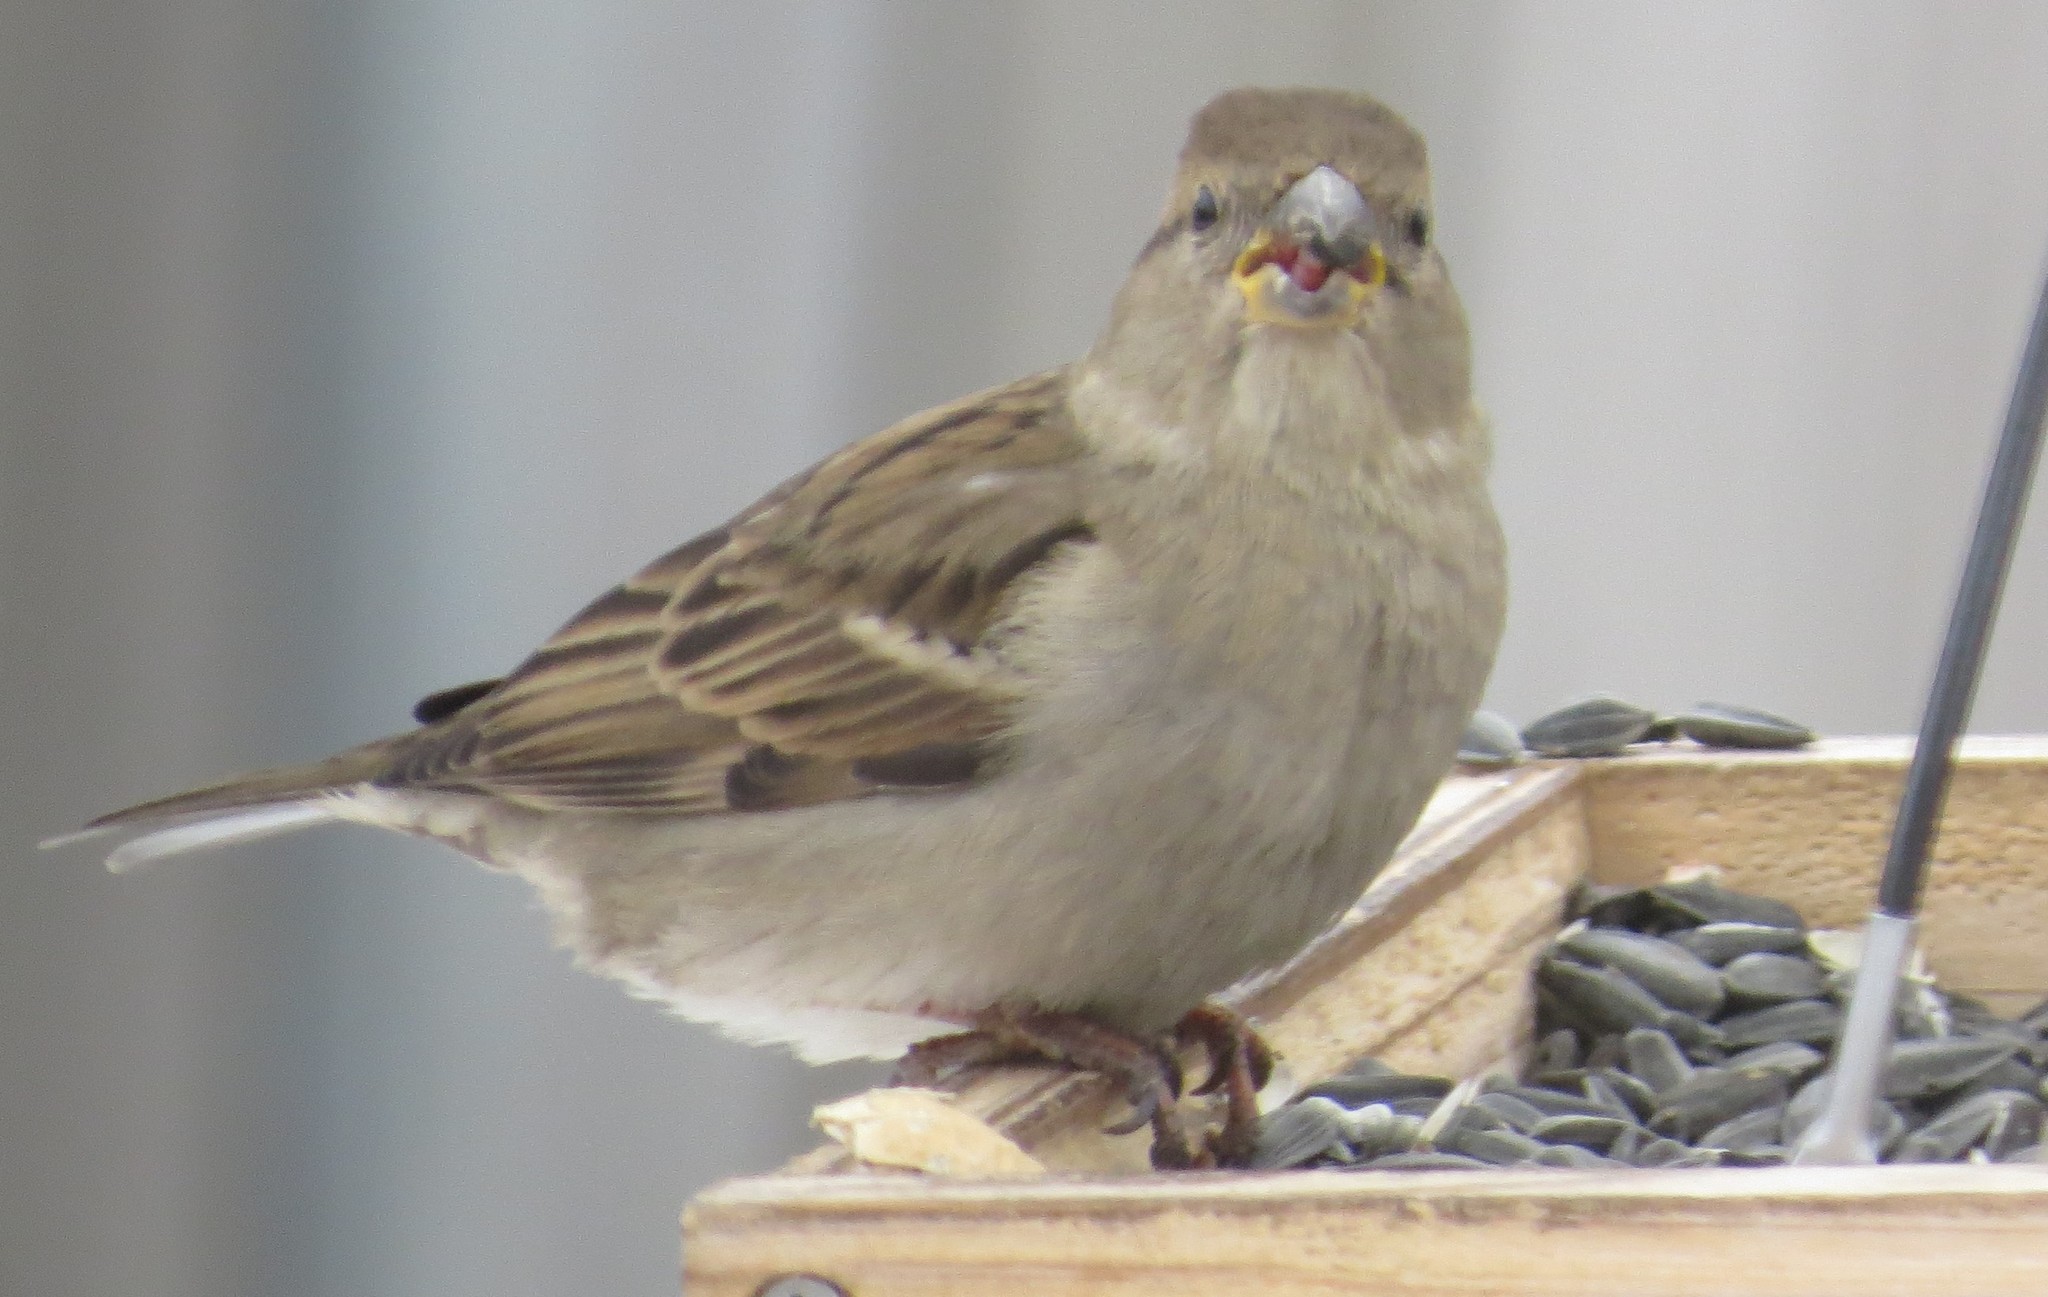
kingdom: Animalia
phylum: Chordata
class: Aves
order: Passeriformes
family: Passeridae
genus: Passer
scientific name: Passer domesticus
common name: House sparrow
